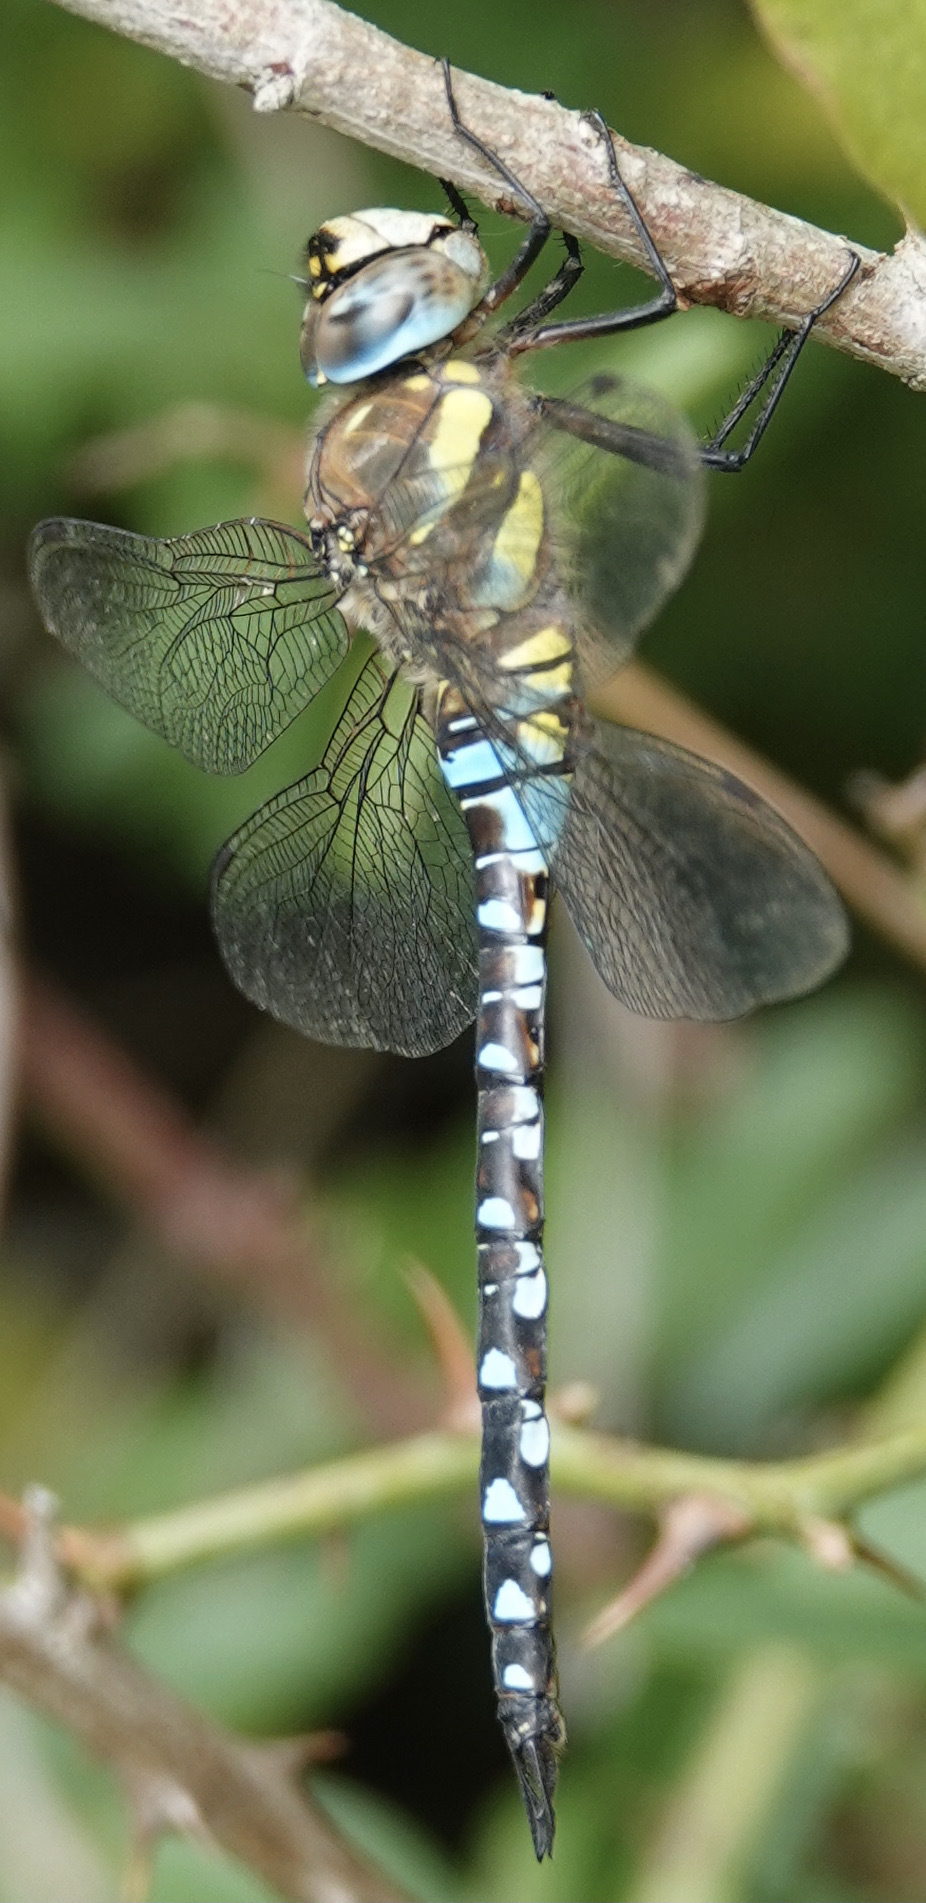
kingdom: Animalia
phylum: Arthropoda
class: Insecta
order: Odonata
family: Aeshnidae
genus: Aeshna
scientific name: Aeshna mixta
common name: Migrant hawker
